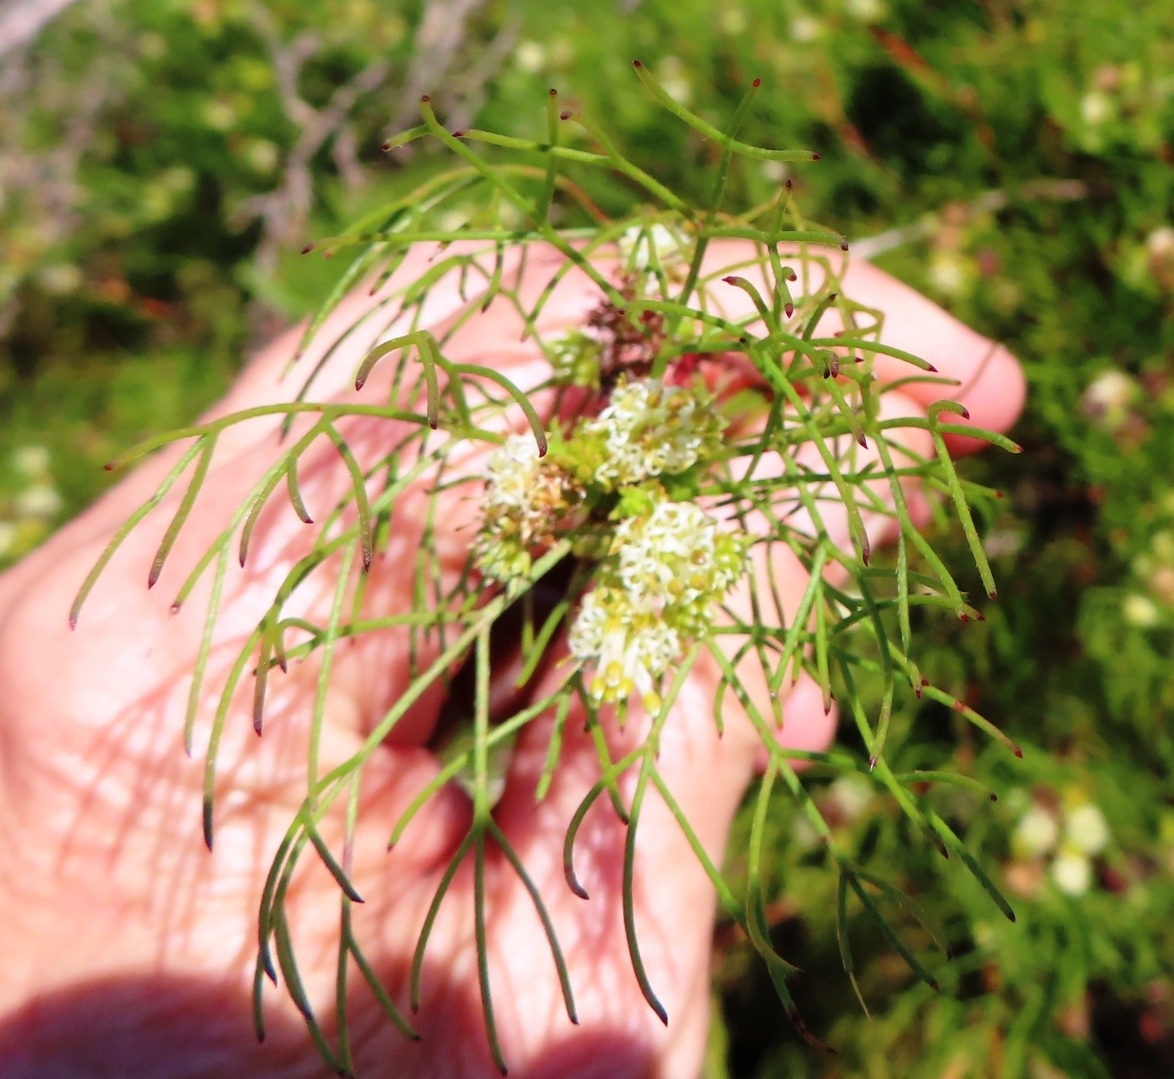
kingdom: Plantae
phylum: Tracheophyta
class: Magnoliopsida
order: Proteales
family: Proteaceae
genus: Serruria
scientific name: Serruria fasciflora
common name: Common pin spiderhead
